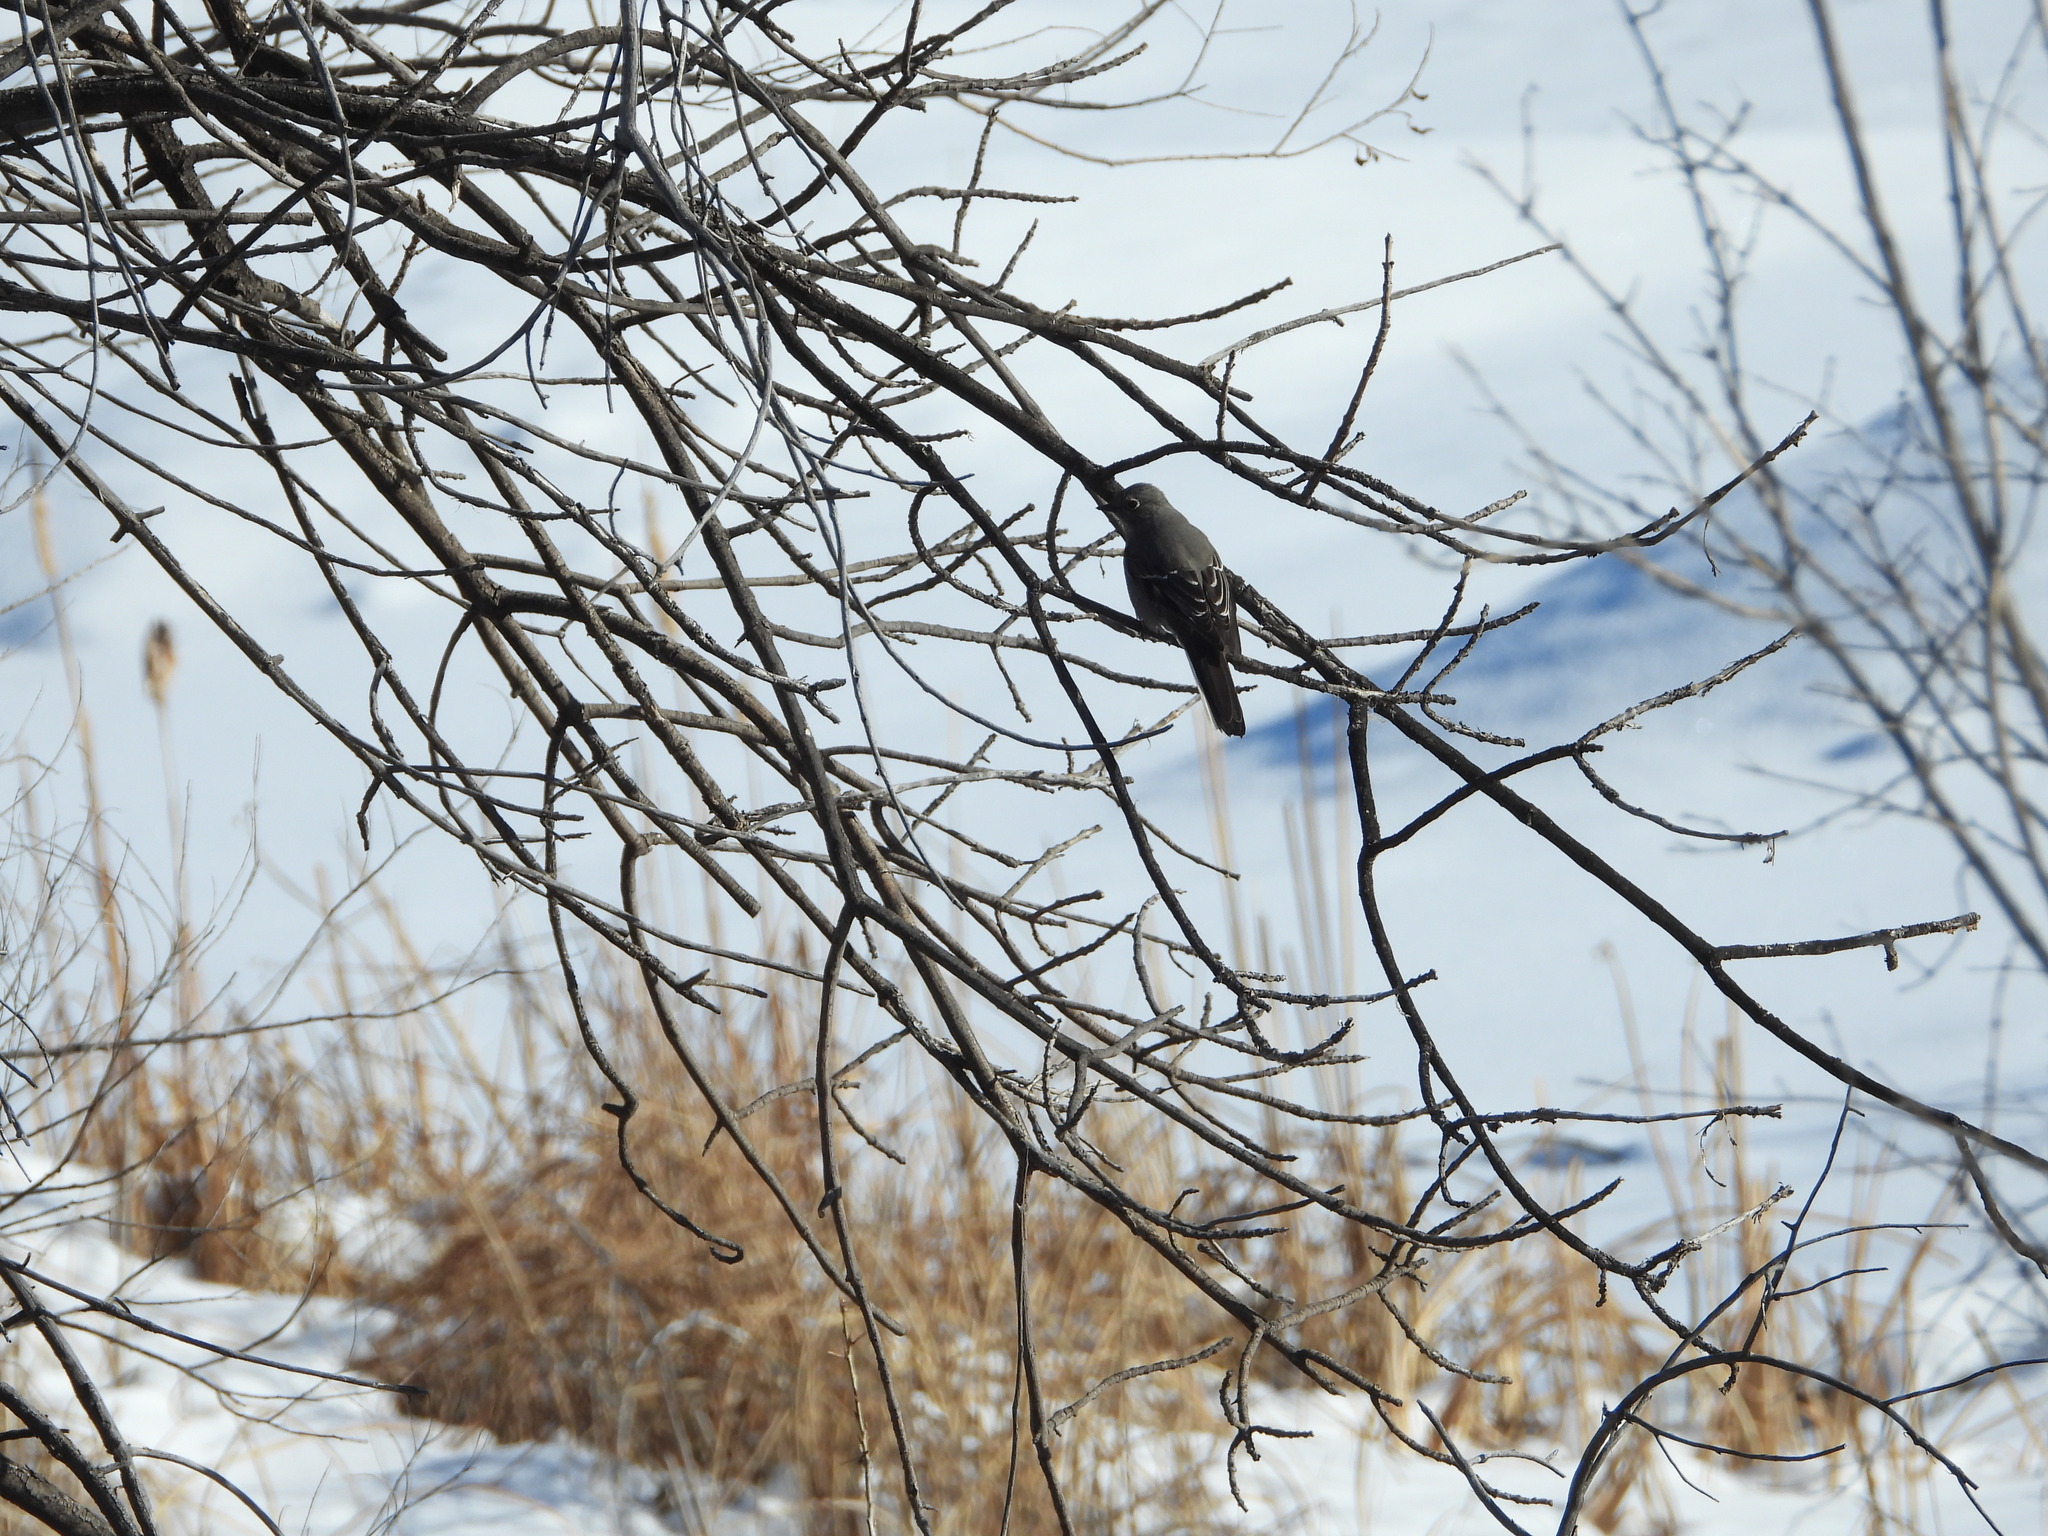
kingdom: Animalia
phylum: Chordata
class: Aves
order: Passeriformes
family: Turdidae
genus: Myadestes
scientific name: Myadestes townsendi
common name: Townsend's solitaire
